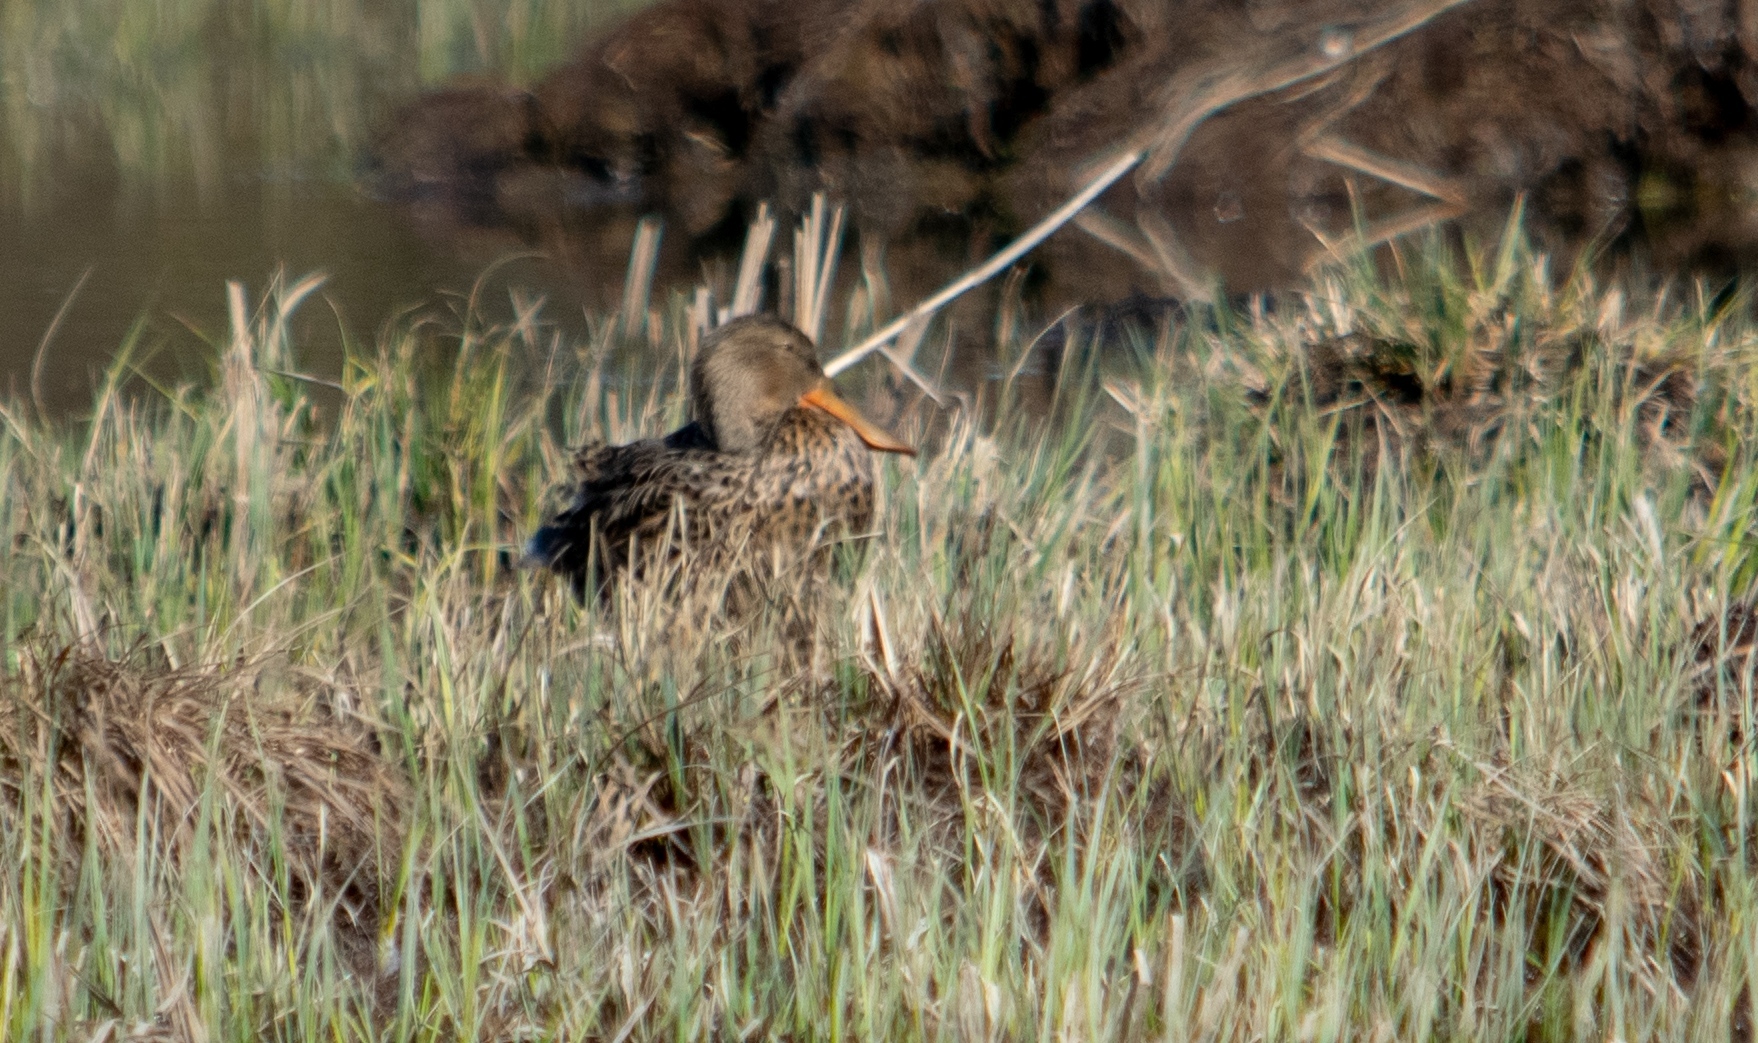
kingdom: Animalia
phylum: Chordata
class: Aves
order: Anseriformes
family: Anatidae
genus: Spatula
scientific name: Spatula clypeata
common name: Northern shoveler
